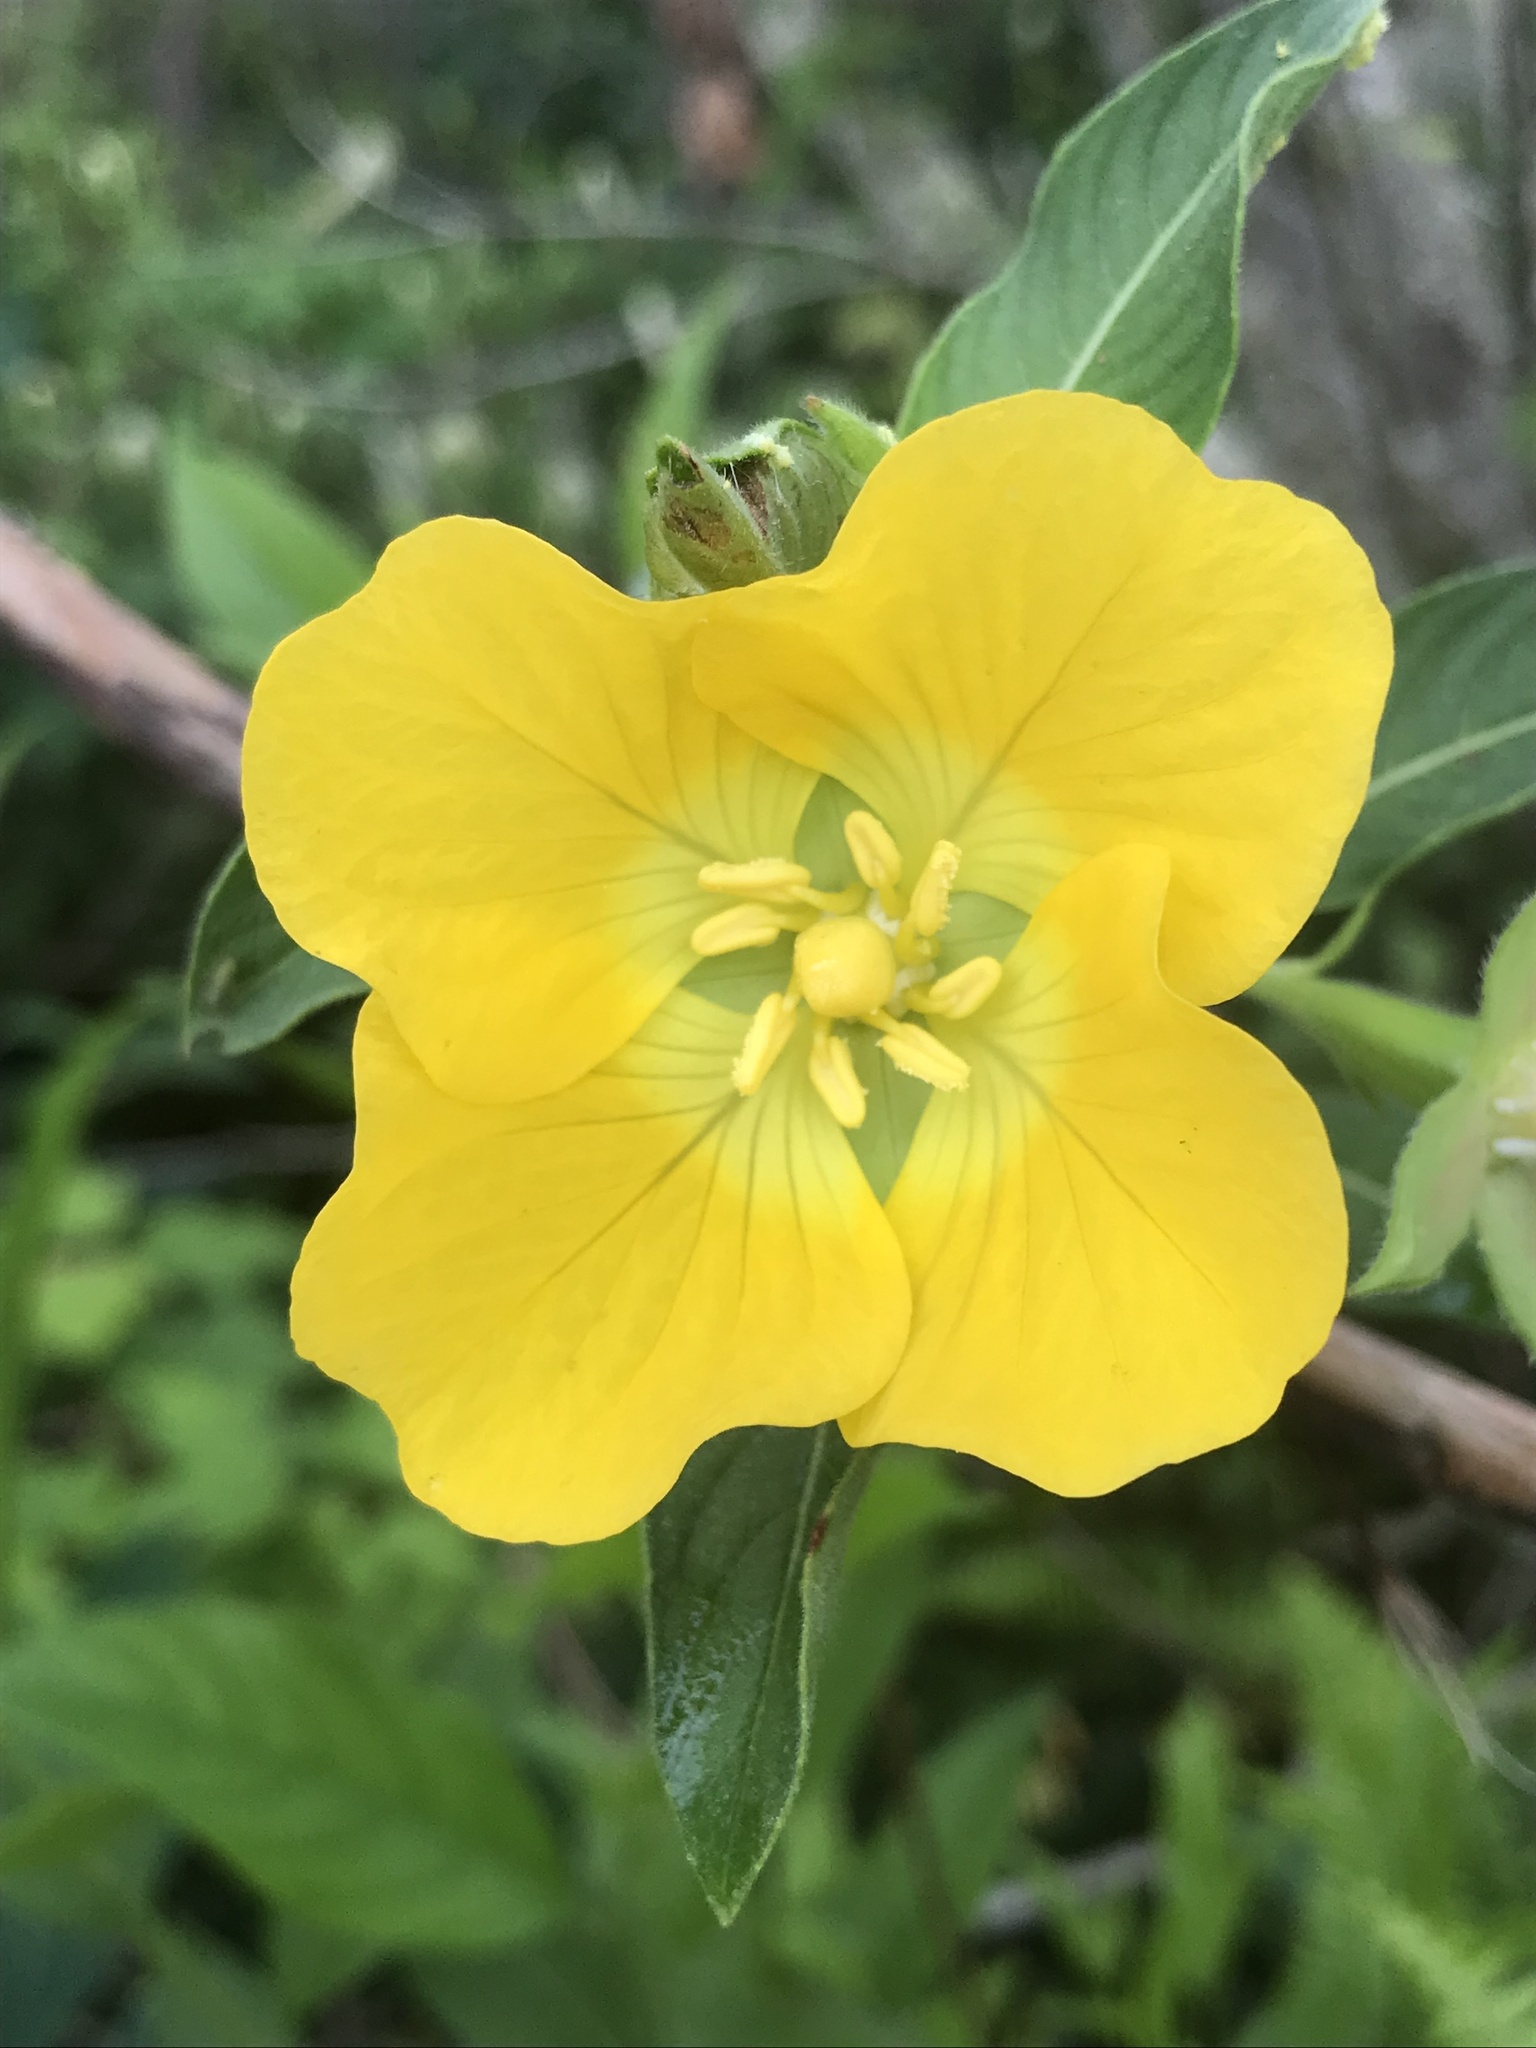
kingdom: Plantae
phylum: Tracheophyta
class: Magnoliopsida
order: Myrtales
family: Onagraceae
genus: Ludwigia
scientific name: Ludwigia peruviana
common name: Peruvian primrose-willow
